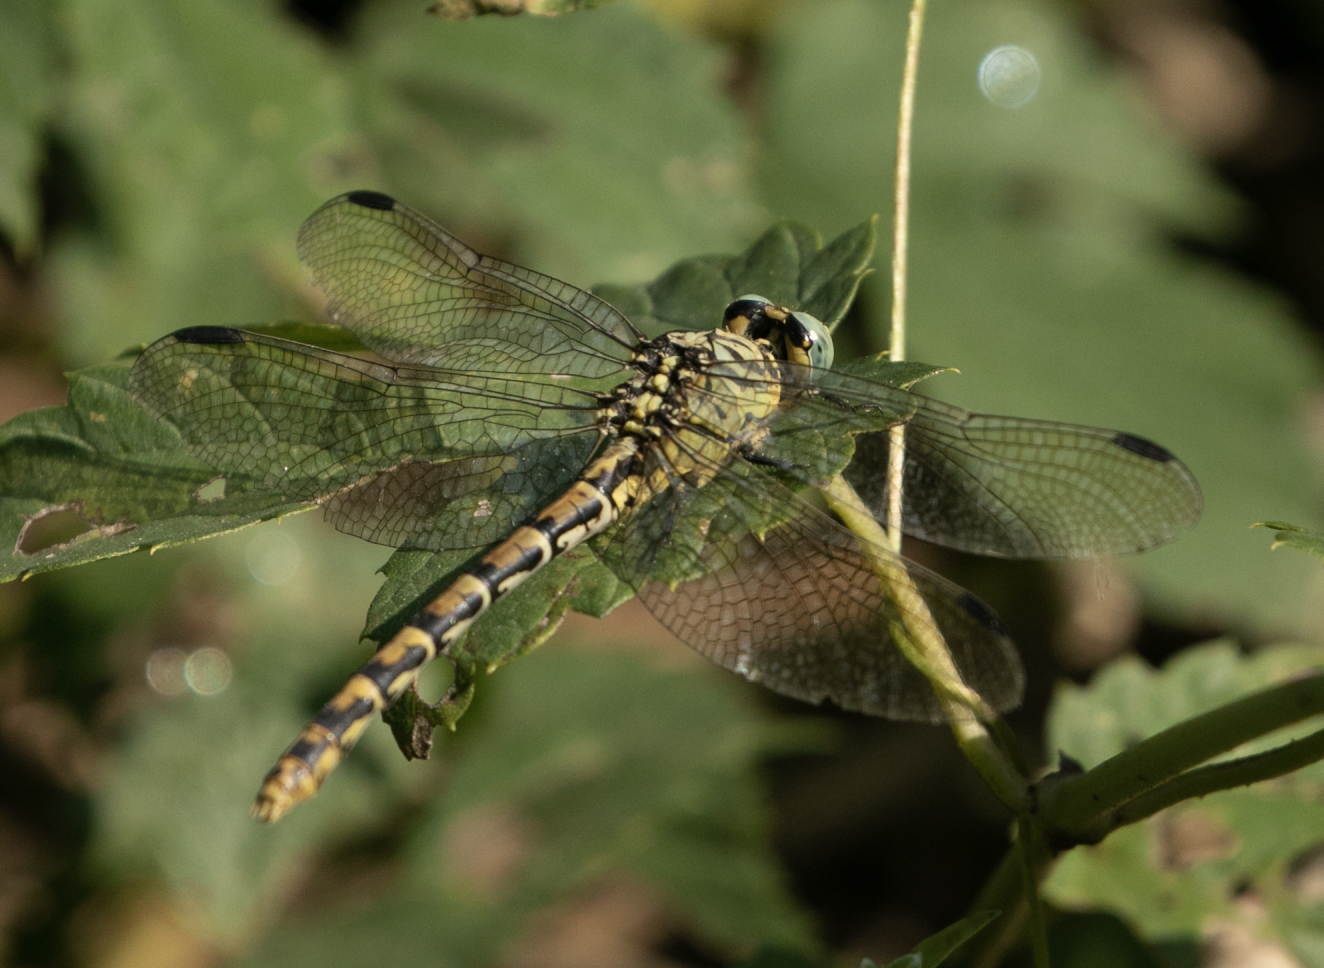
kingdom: Animalia
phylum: Arthropoda
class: Insecta
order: Odonata
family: Gomphidae
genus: Onychogomphus
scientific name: Onychogomphus forcipatus
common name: Small pincertail
